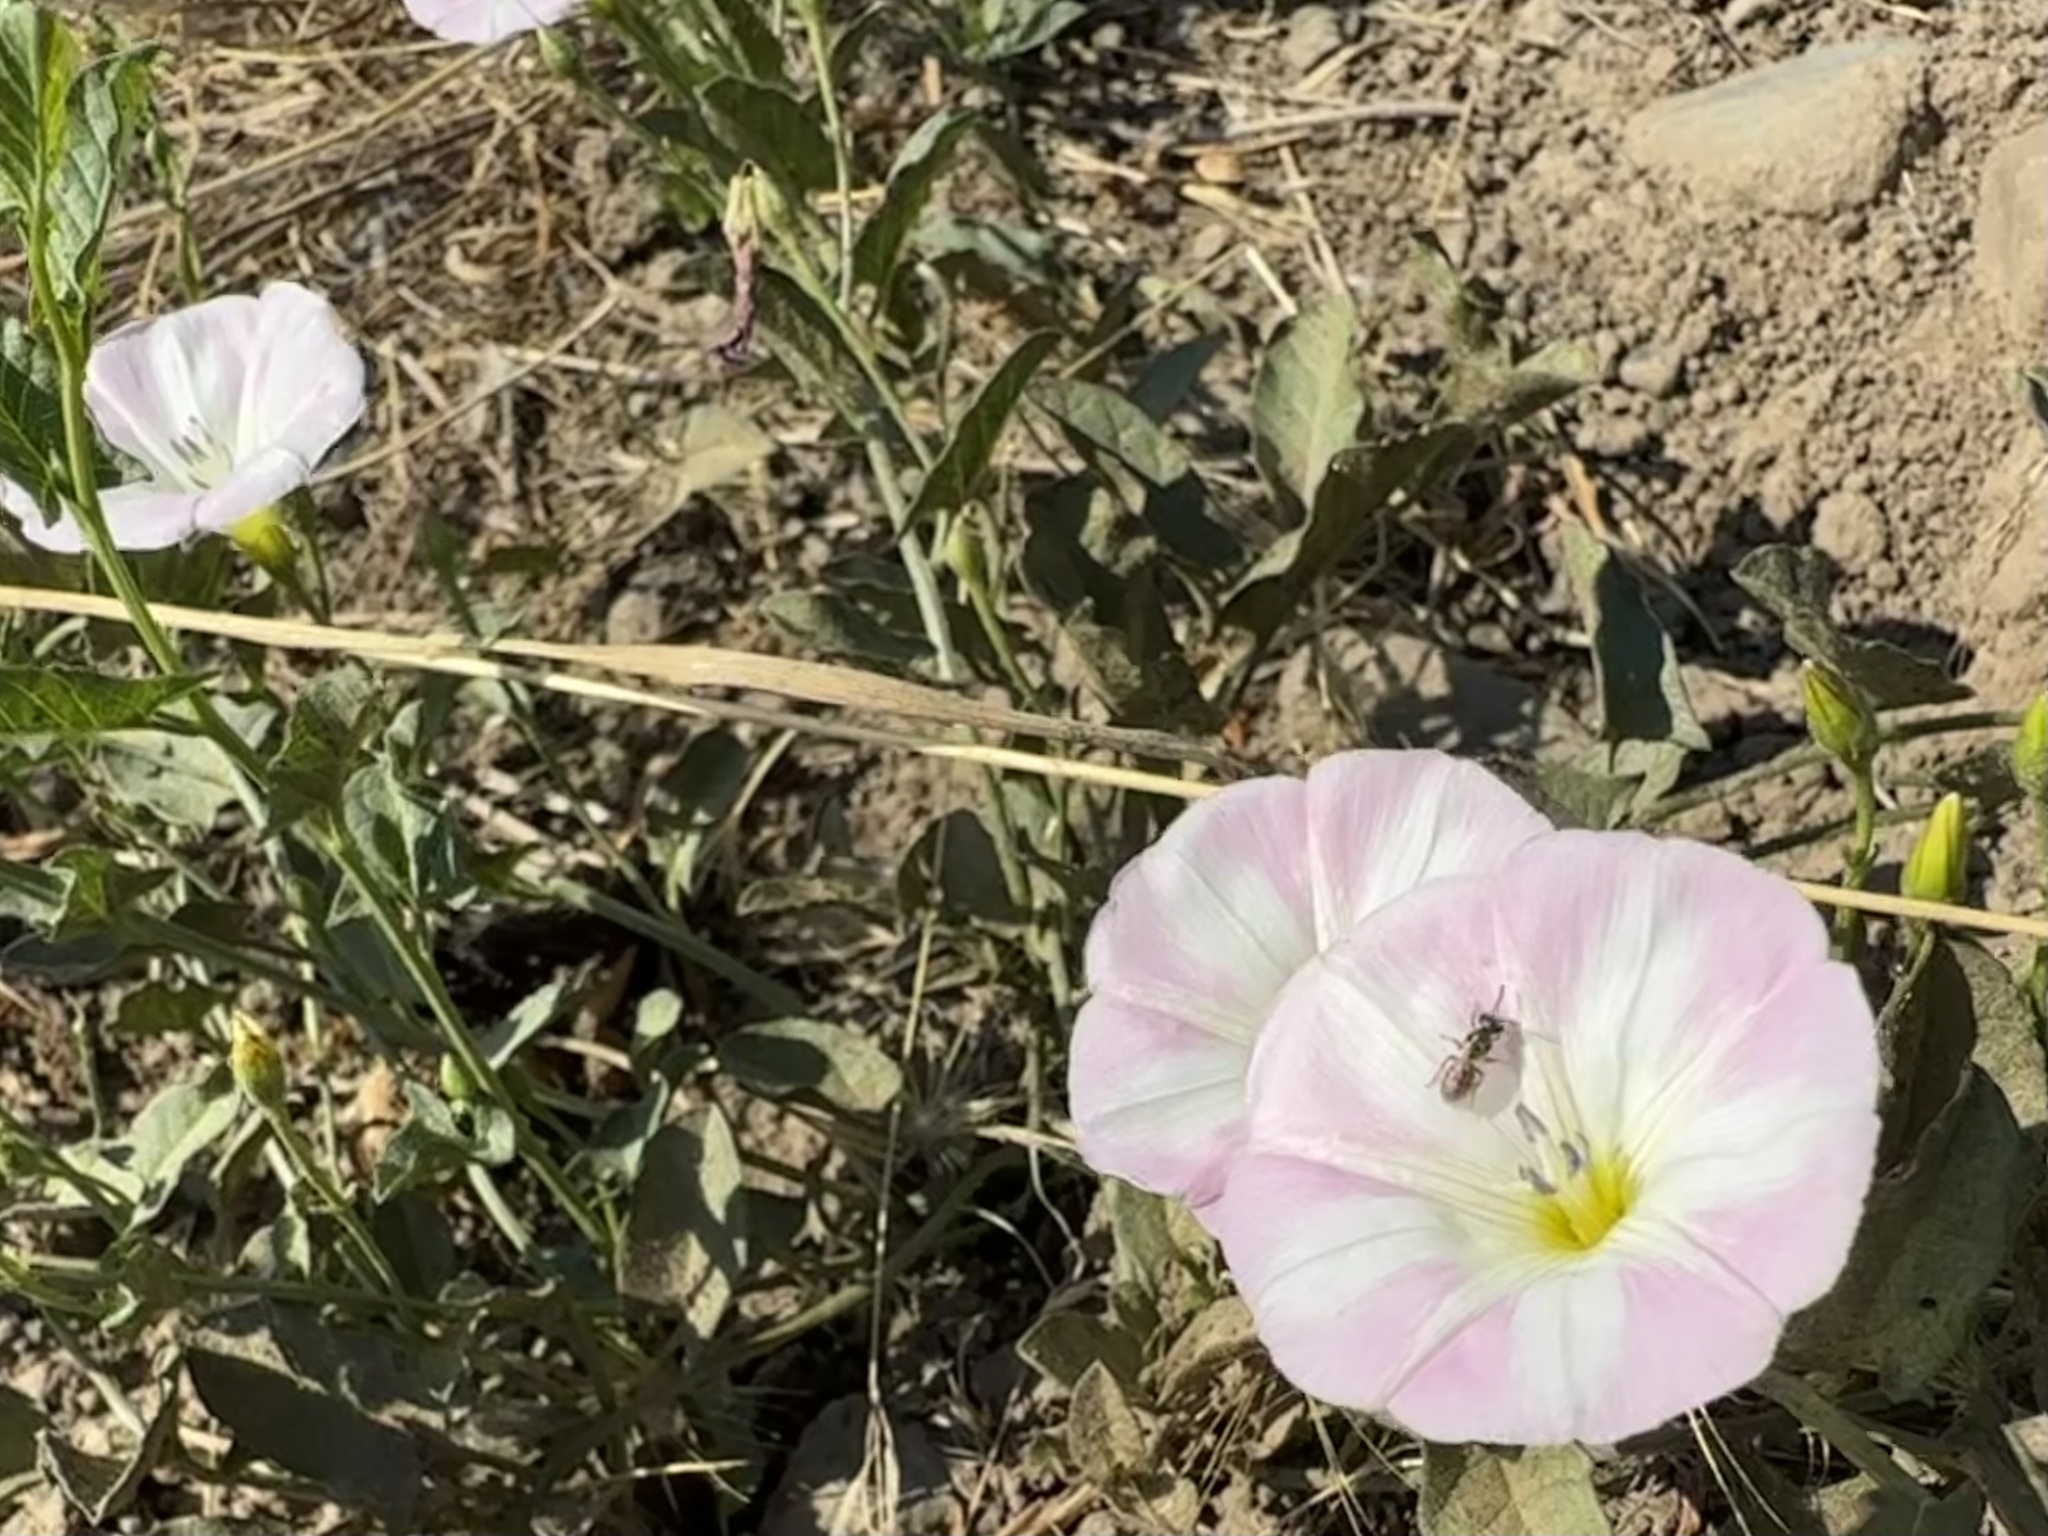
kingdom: Plantae
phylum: Tracheophyta
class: Magnoliopsida
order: Solanales
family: Convolvulaceae
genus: Convolvulus
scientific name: Convolvulus arvensis
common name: Field bindweed
